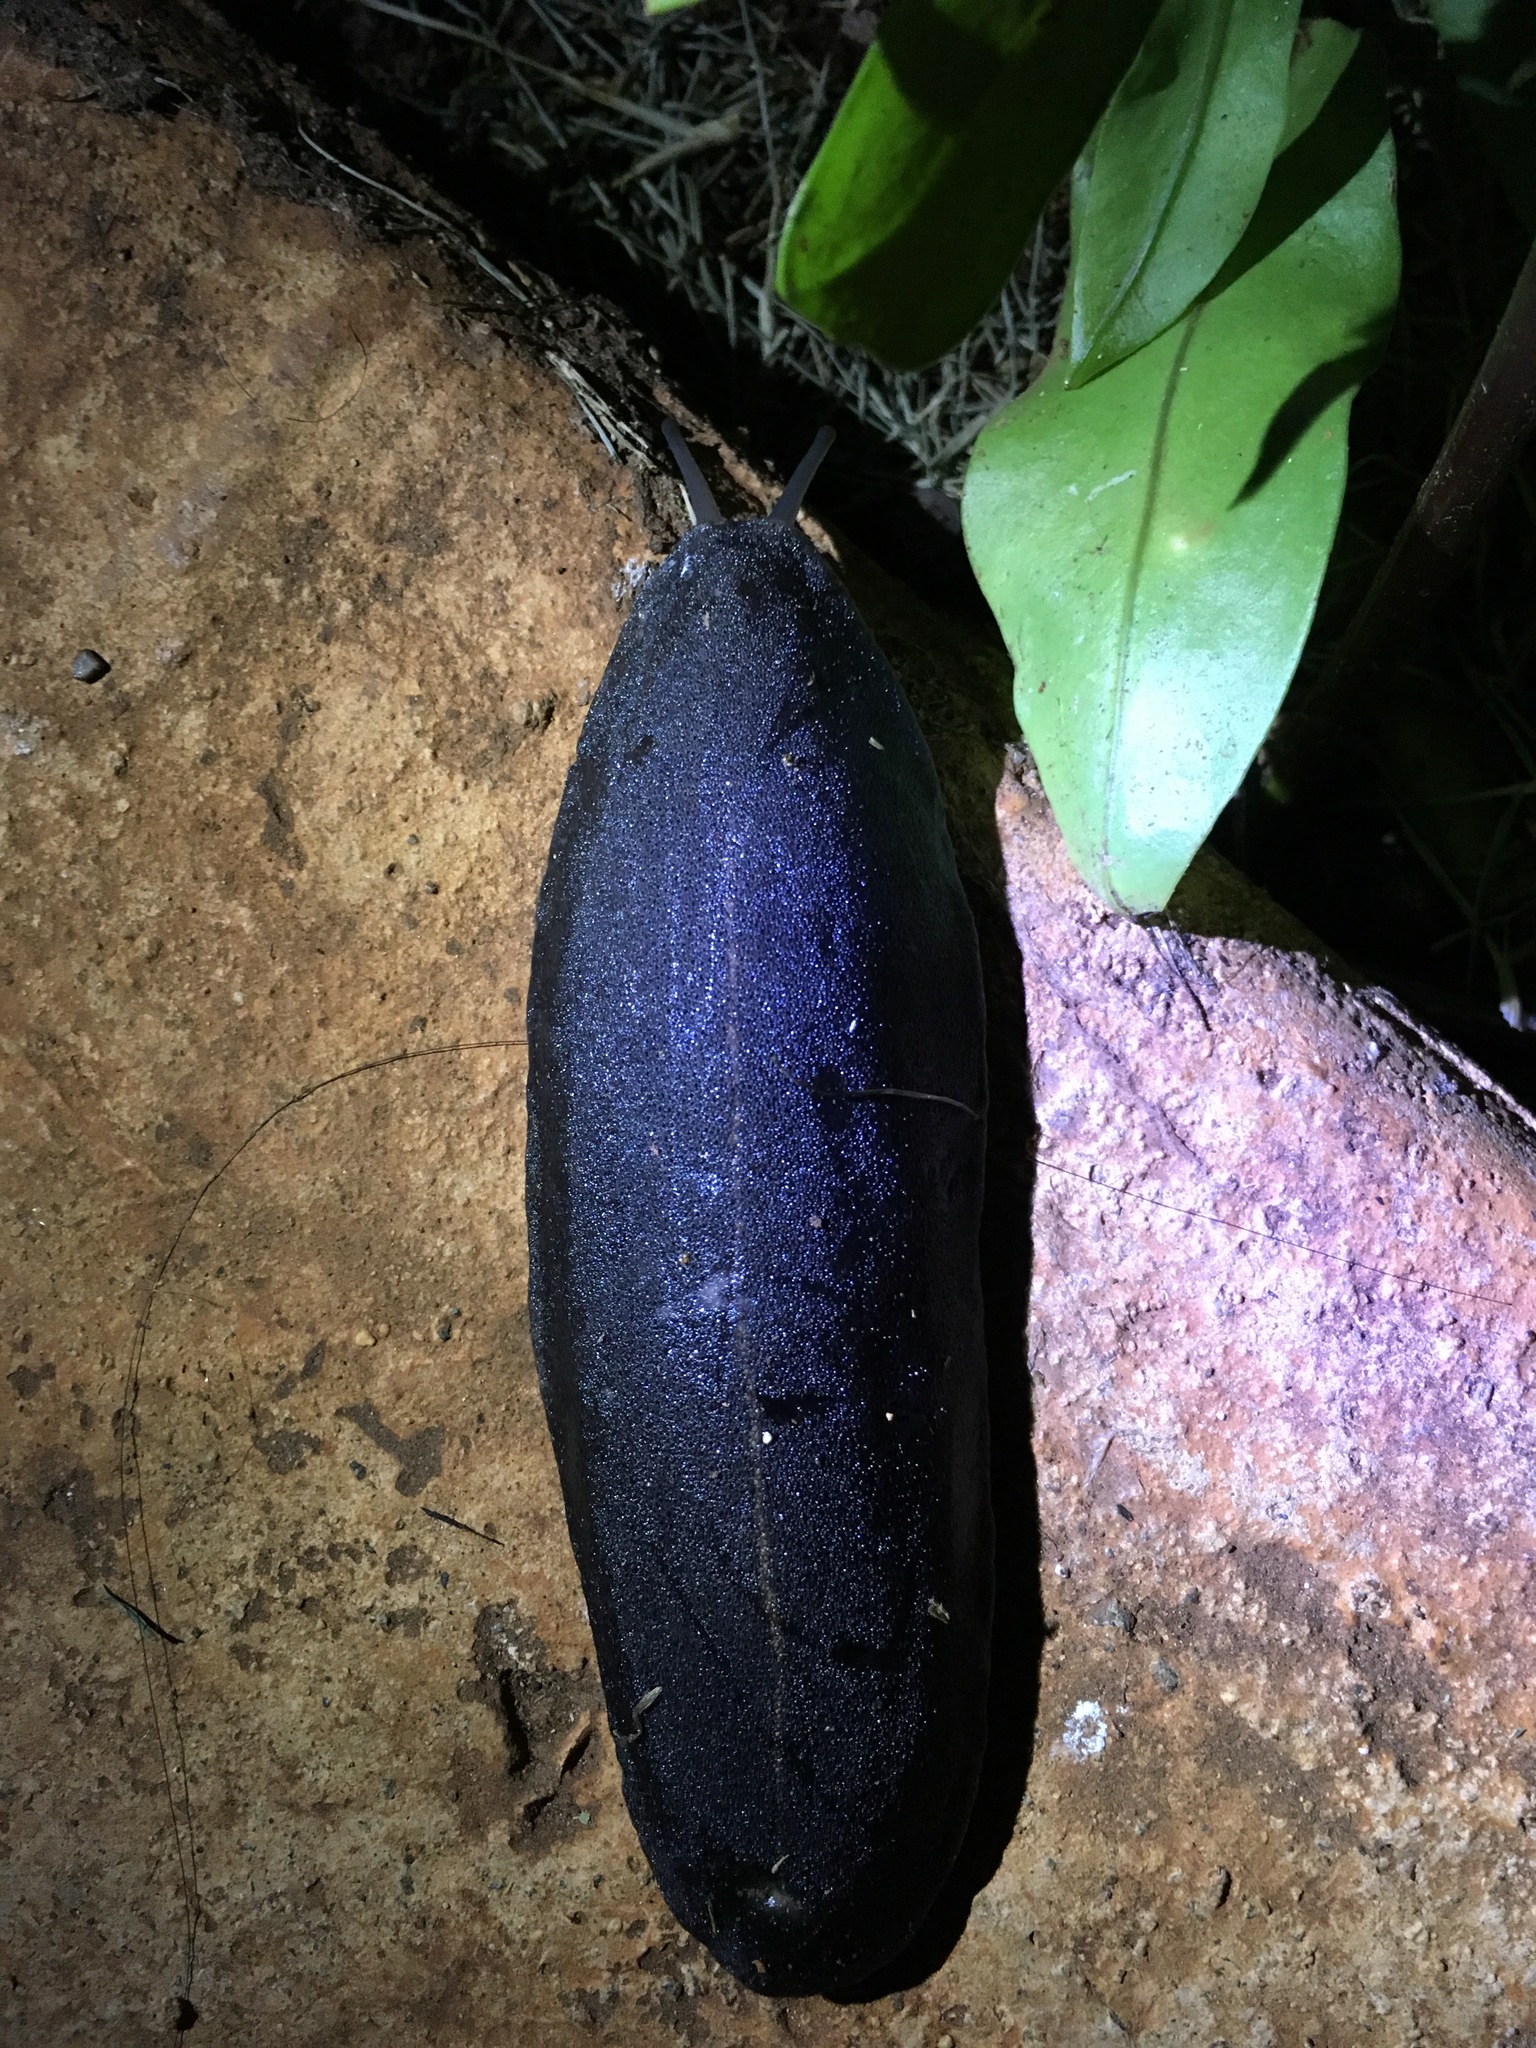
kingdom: Animalia
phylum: Mollusca
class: Gastropoda
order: Systellommatophora
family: Veronicellidae
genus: Laevicaulis
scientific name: Laevicaulis alte
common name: Tropical leatherleaf
